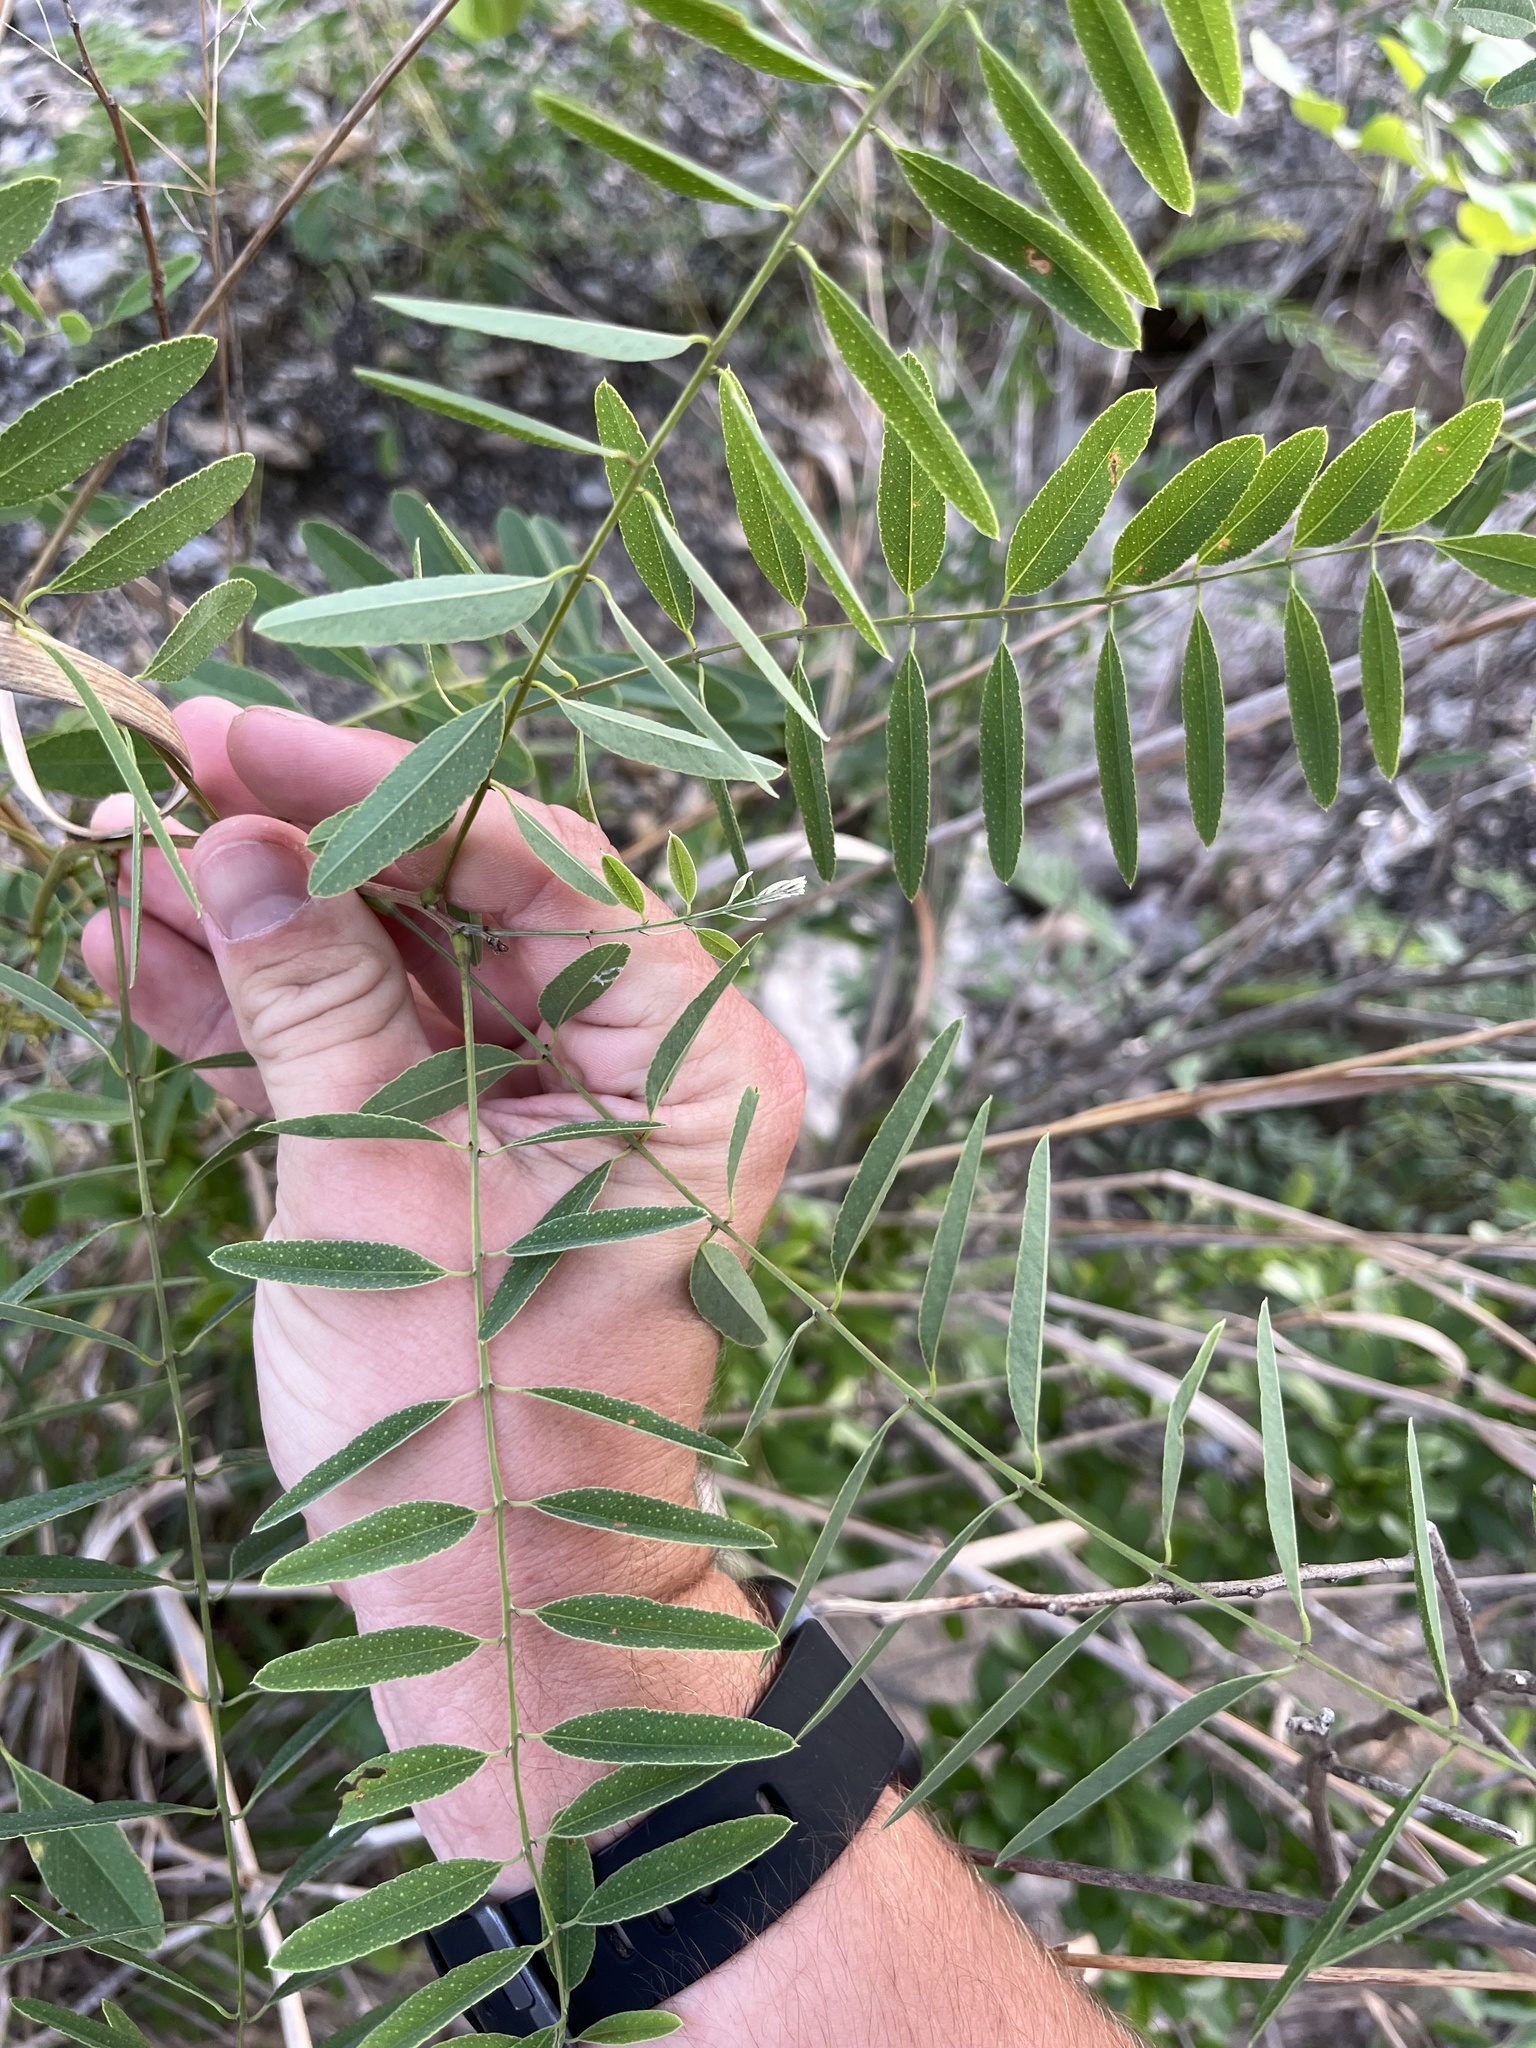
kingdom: Plantae
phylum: Tracheophyta
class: Magnoliopsida
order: Fabales
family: Fabaceae
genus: Amorpha
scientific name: Amorpha fruticosa
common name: False indigo
